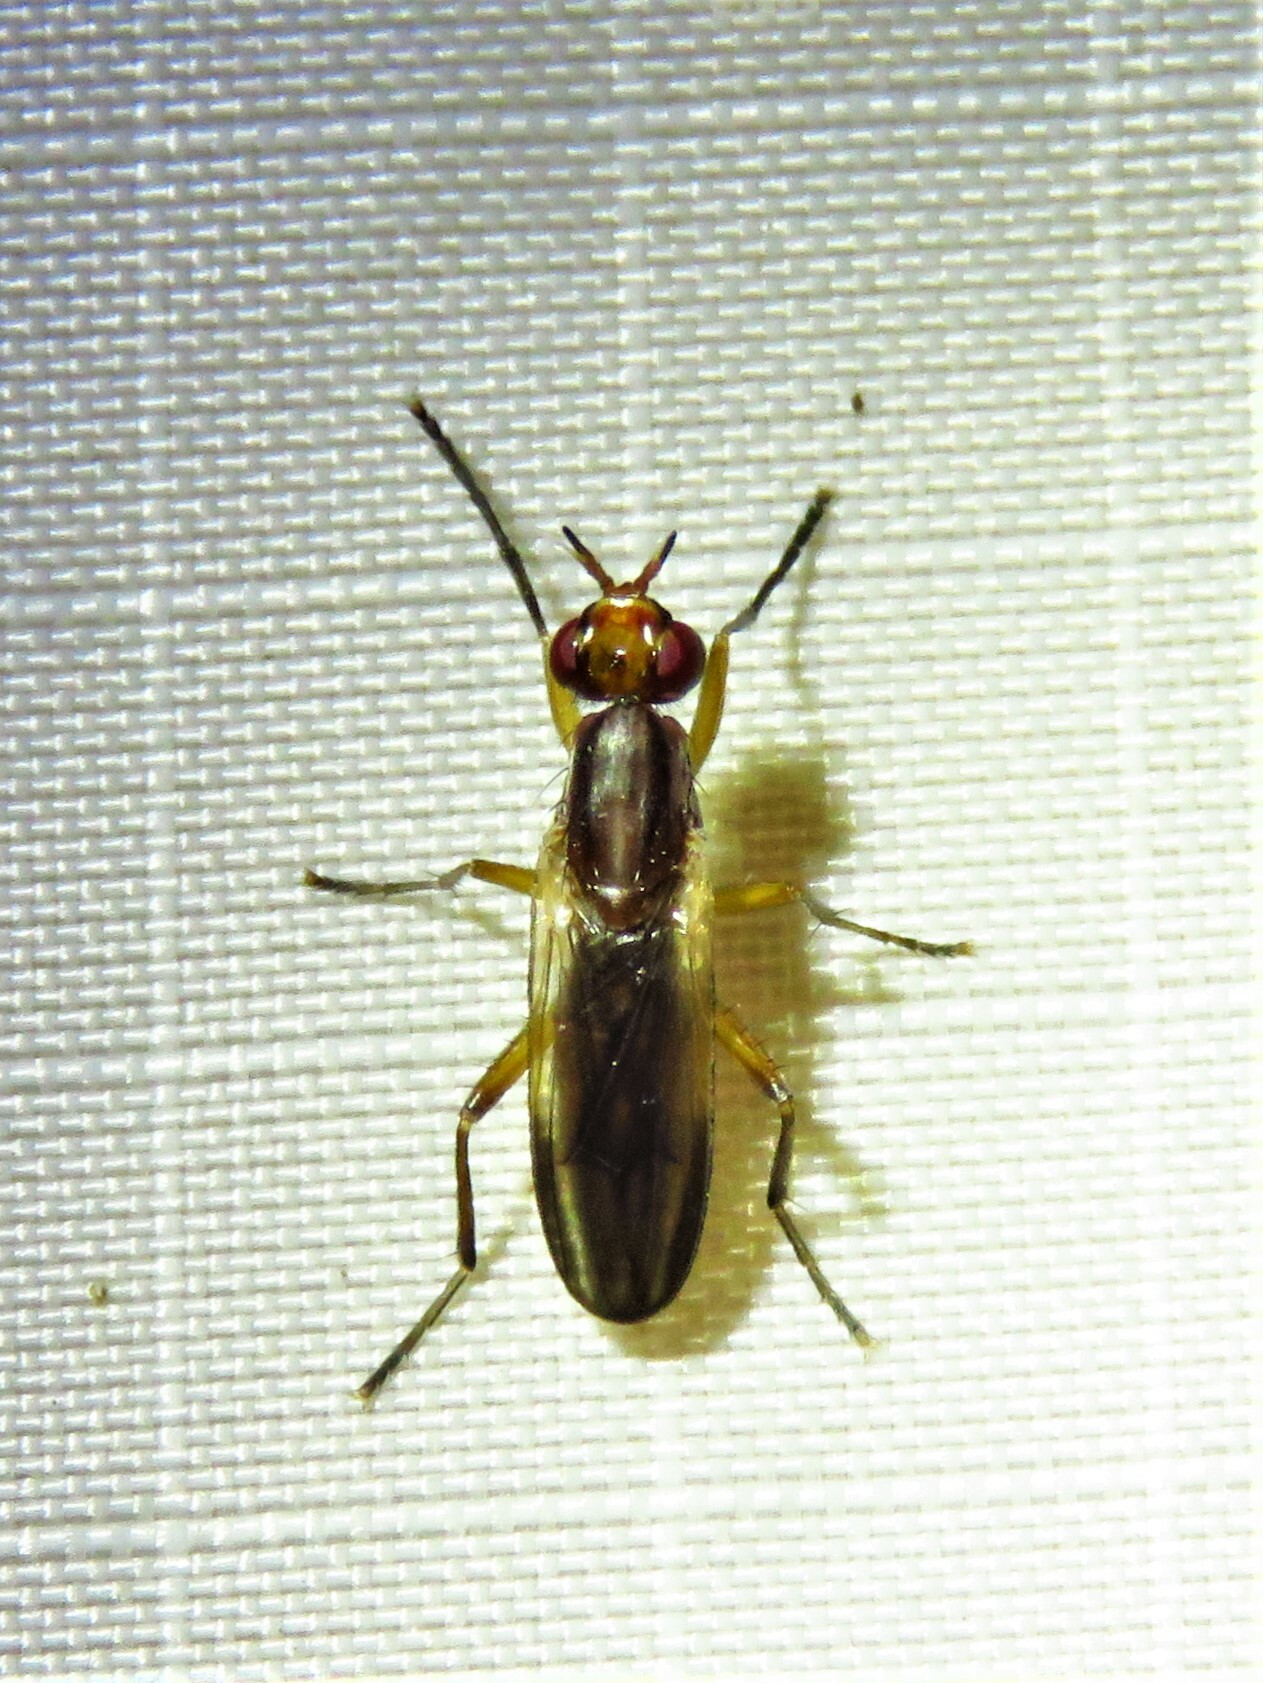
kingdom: Animalia
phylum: Arthropoda
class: Insecta
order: Diptera
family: Sciomyzidae
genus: Oidematops
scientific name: Oidematops ferrugineus
